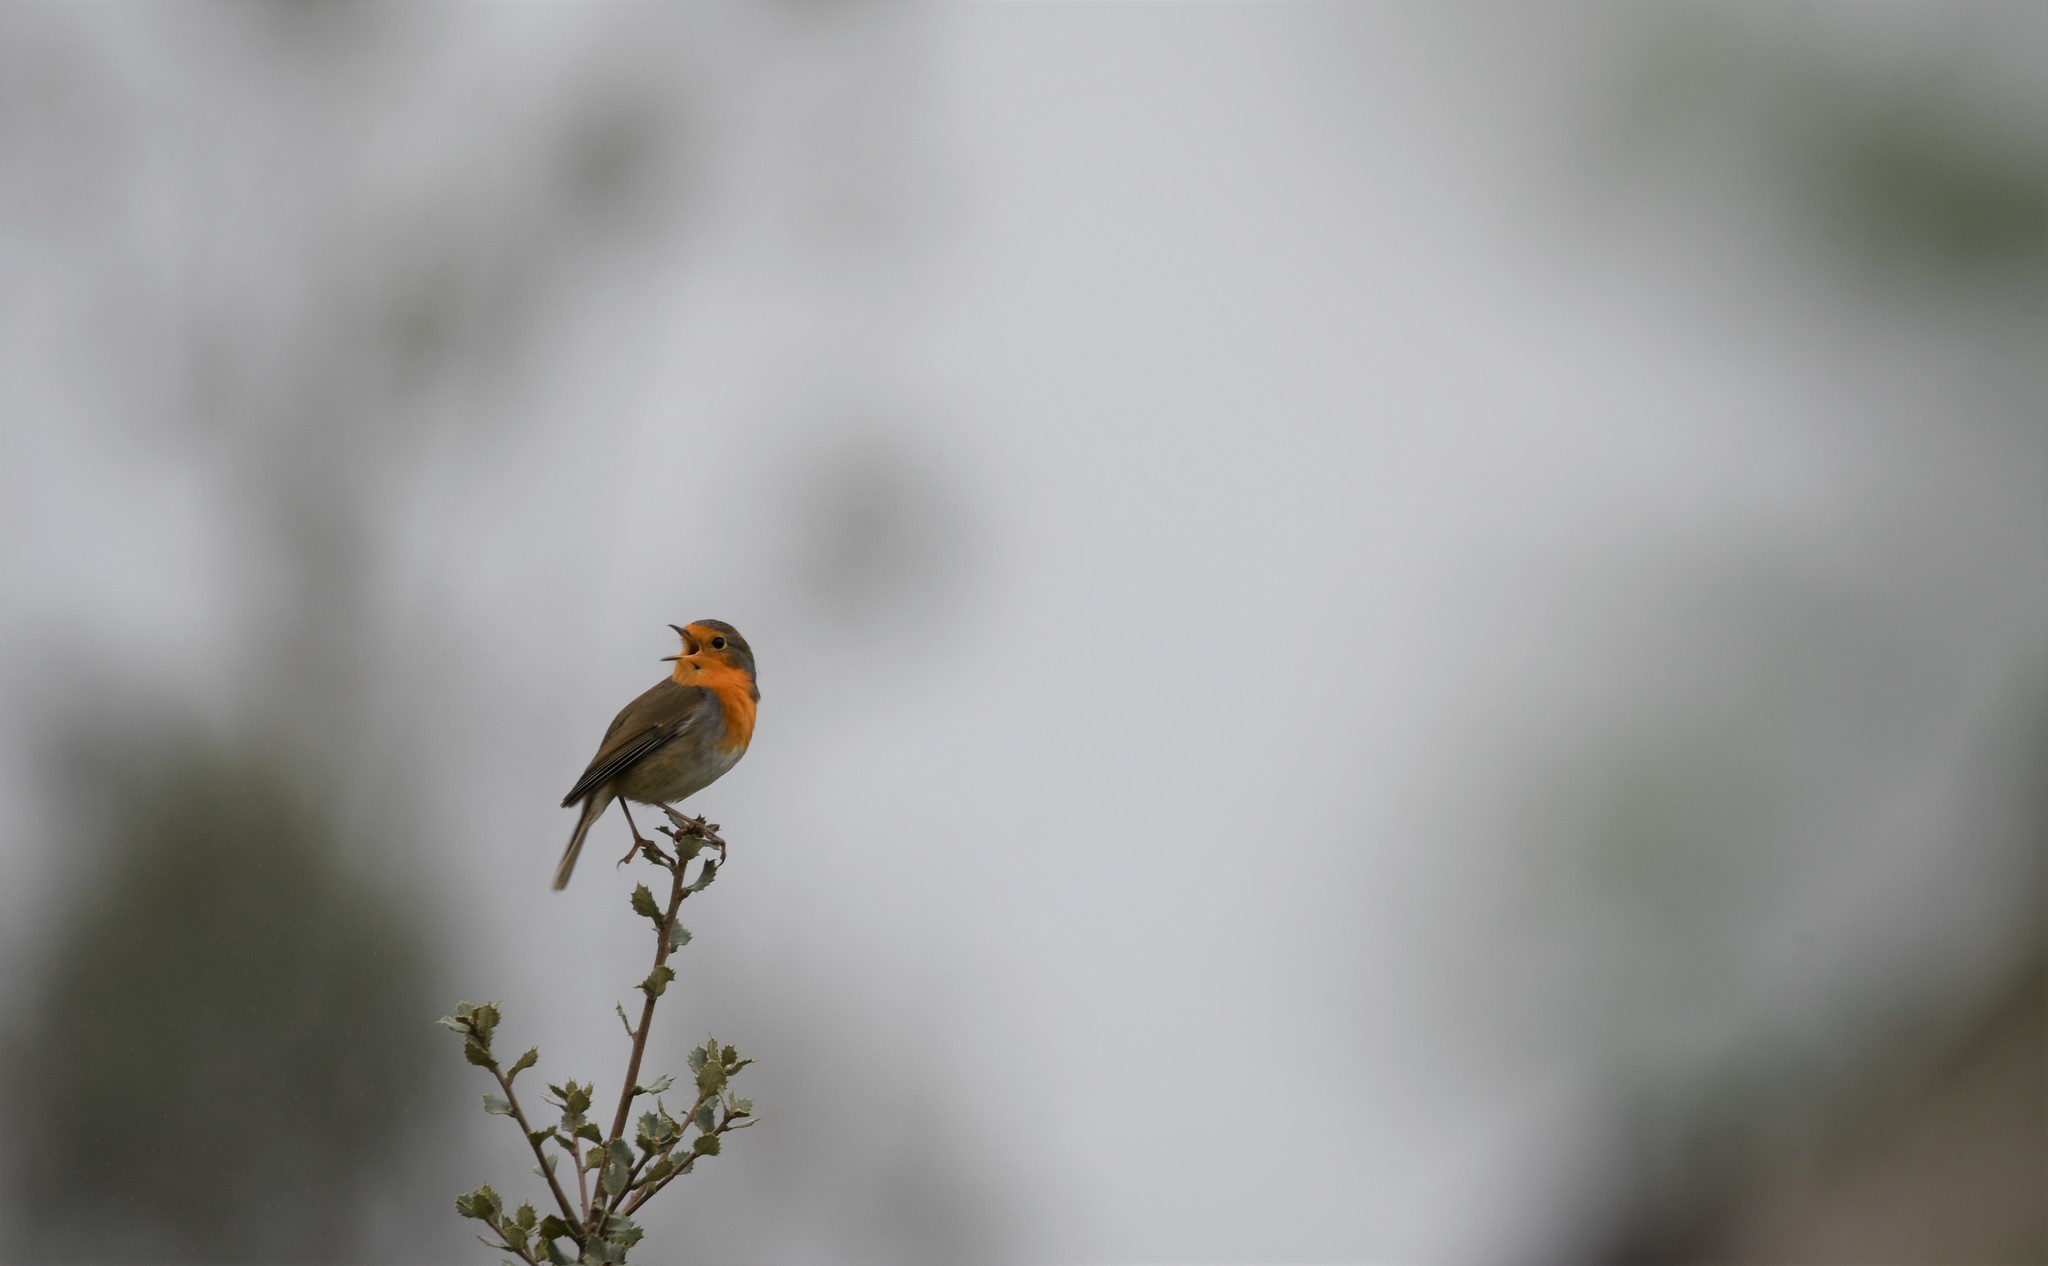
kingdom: Animalia
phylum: Chordata
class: Aves
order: Passeriformes
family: Muscicapidae
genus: Erithacus
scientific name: Erithacus rubecula
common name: European robin
